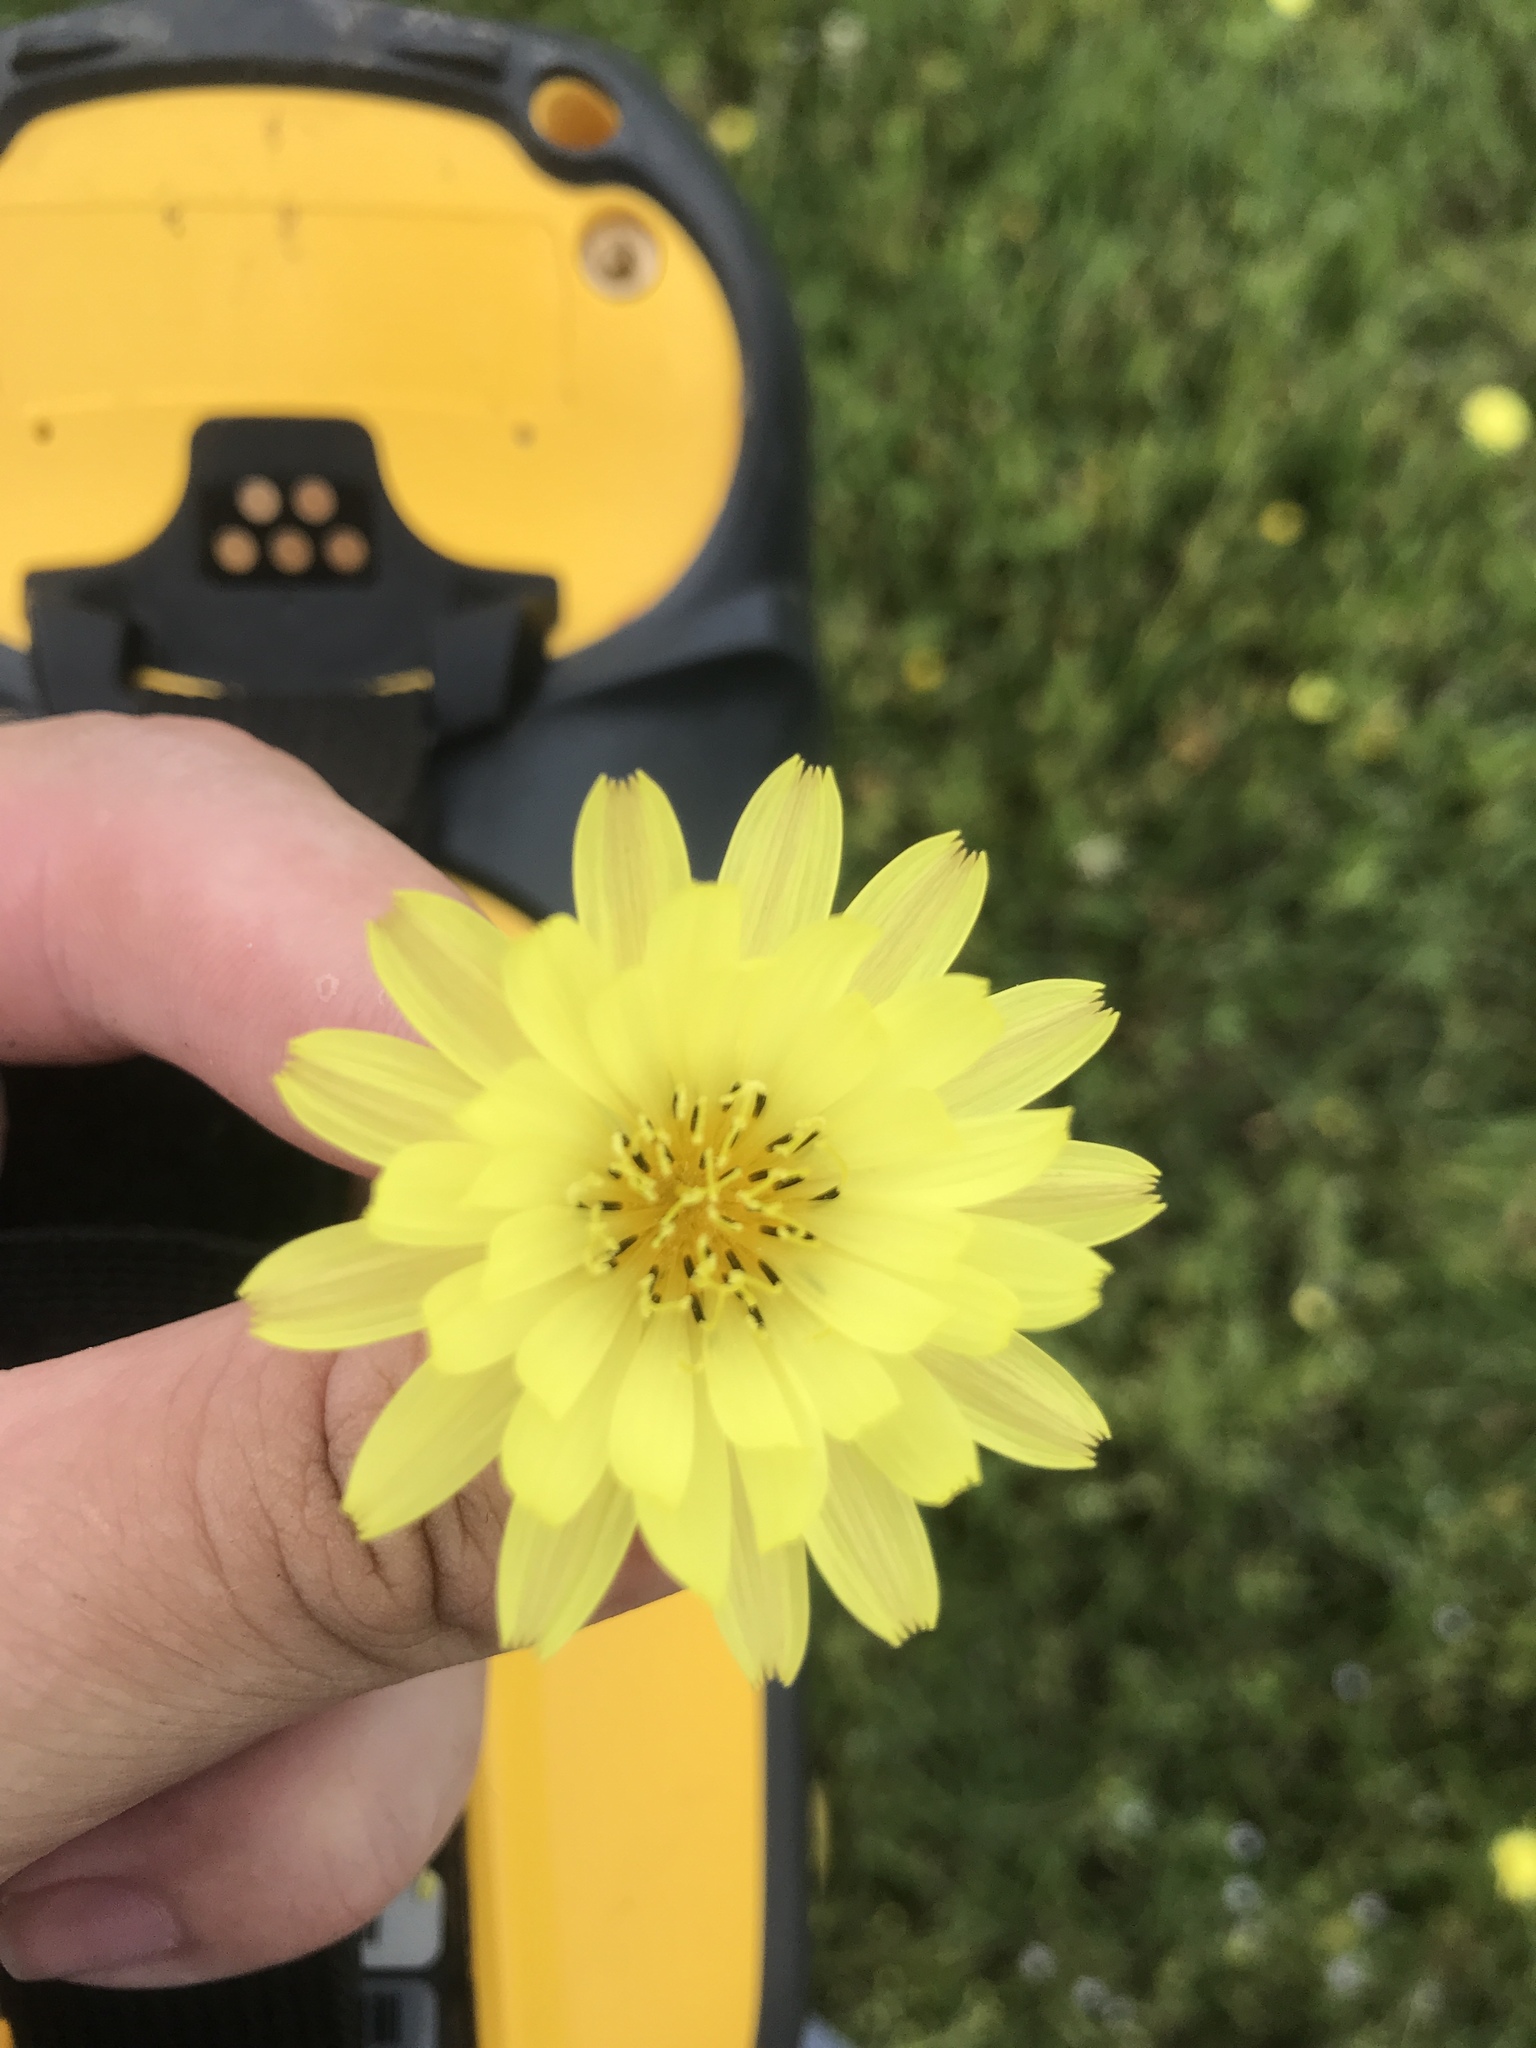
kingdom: Plantae
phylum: Tracheophyta
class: Magnoliopsida
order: Asterales
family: Asteraceae
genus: Pyrrhopappus
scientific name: Pyrrhopappus pauciflorus
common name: Texas false dandelion
